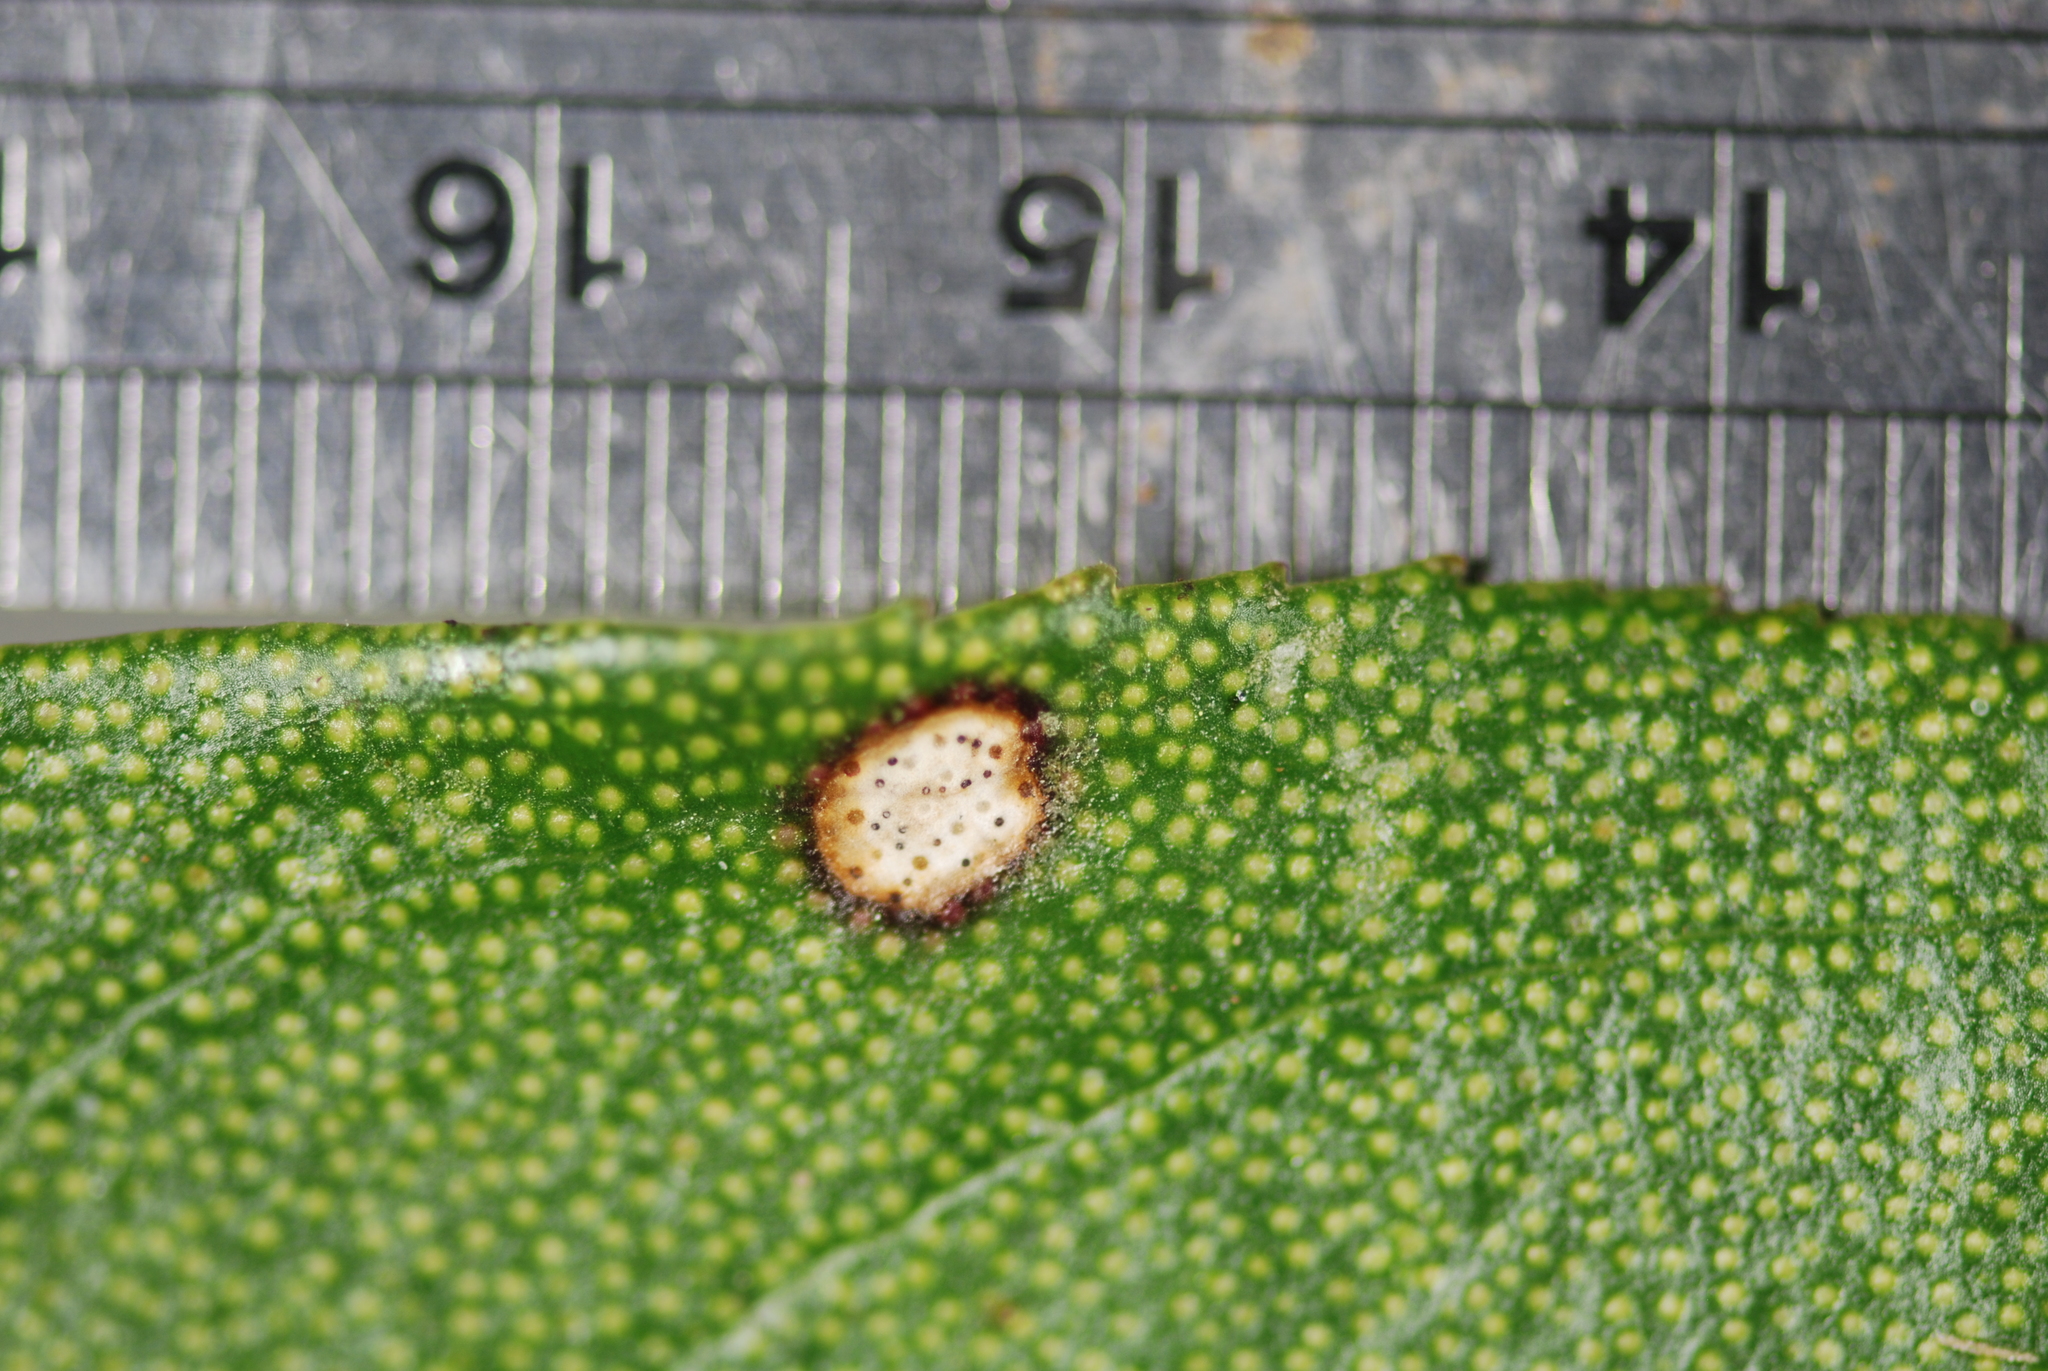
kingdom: Fungi
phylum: Ascomycota
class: Dothideomycetes
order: Mycosphaerellales
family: Mycosphaerellaceae
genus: Septoria
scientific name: Septoria colensoi
